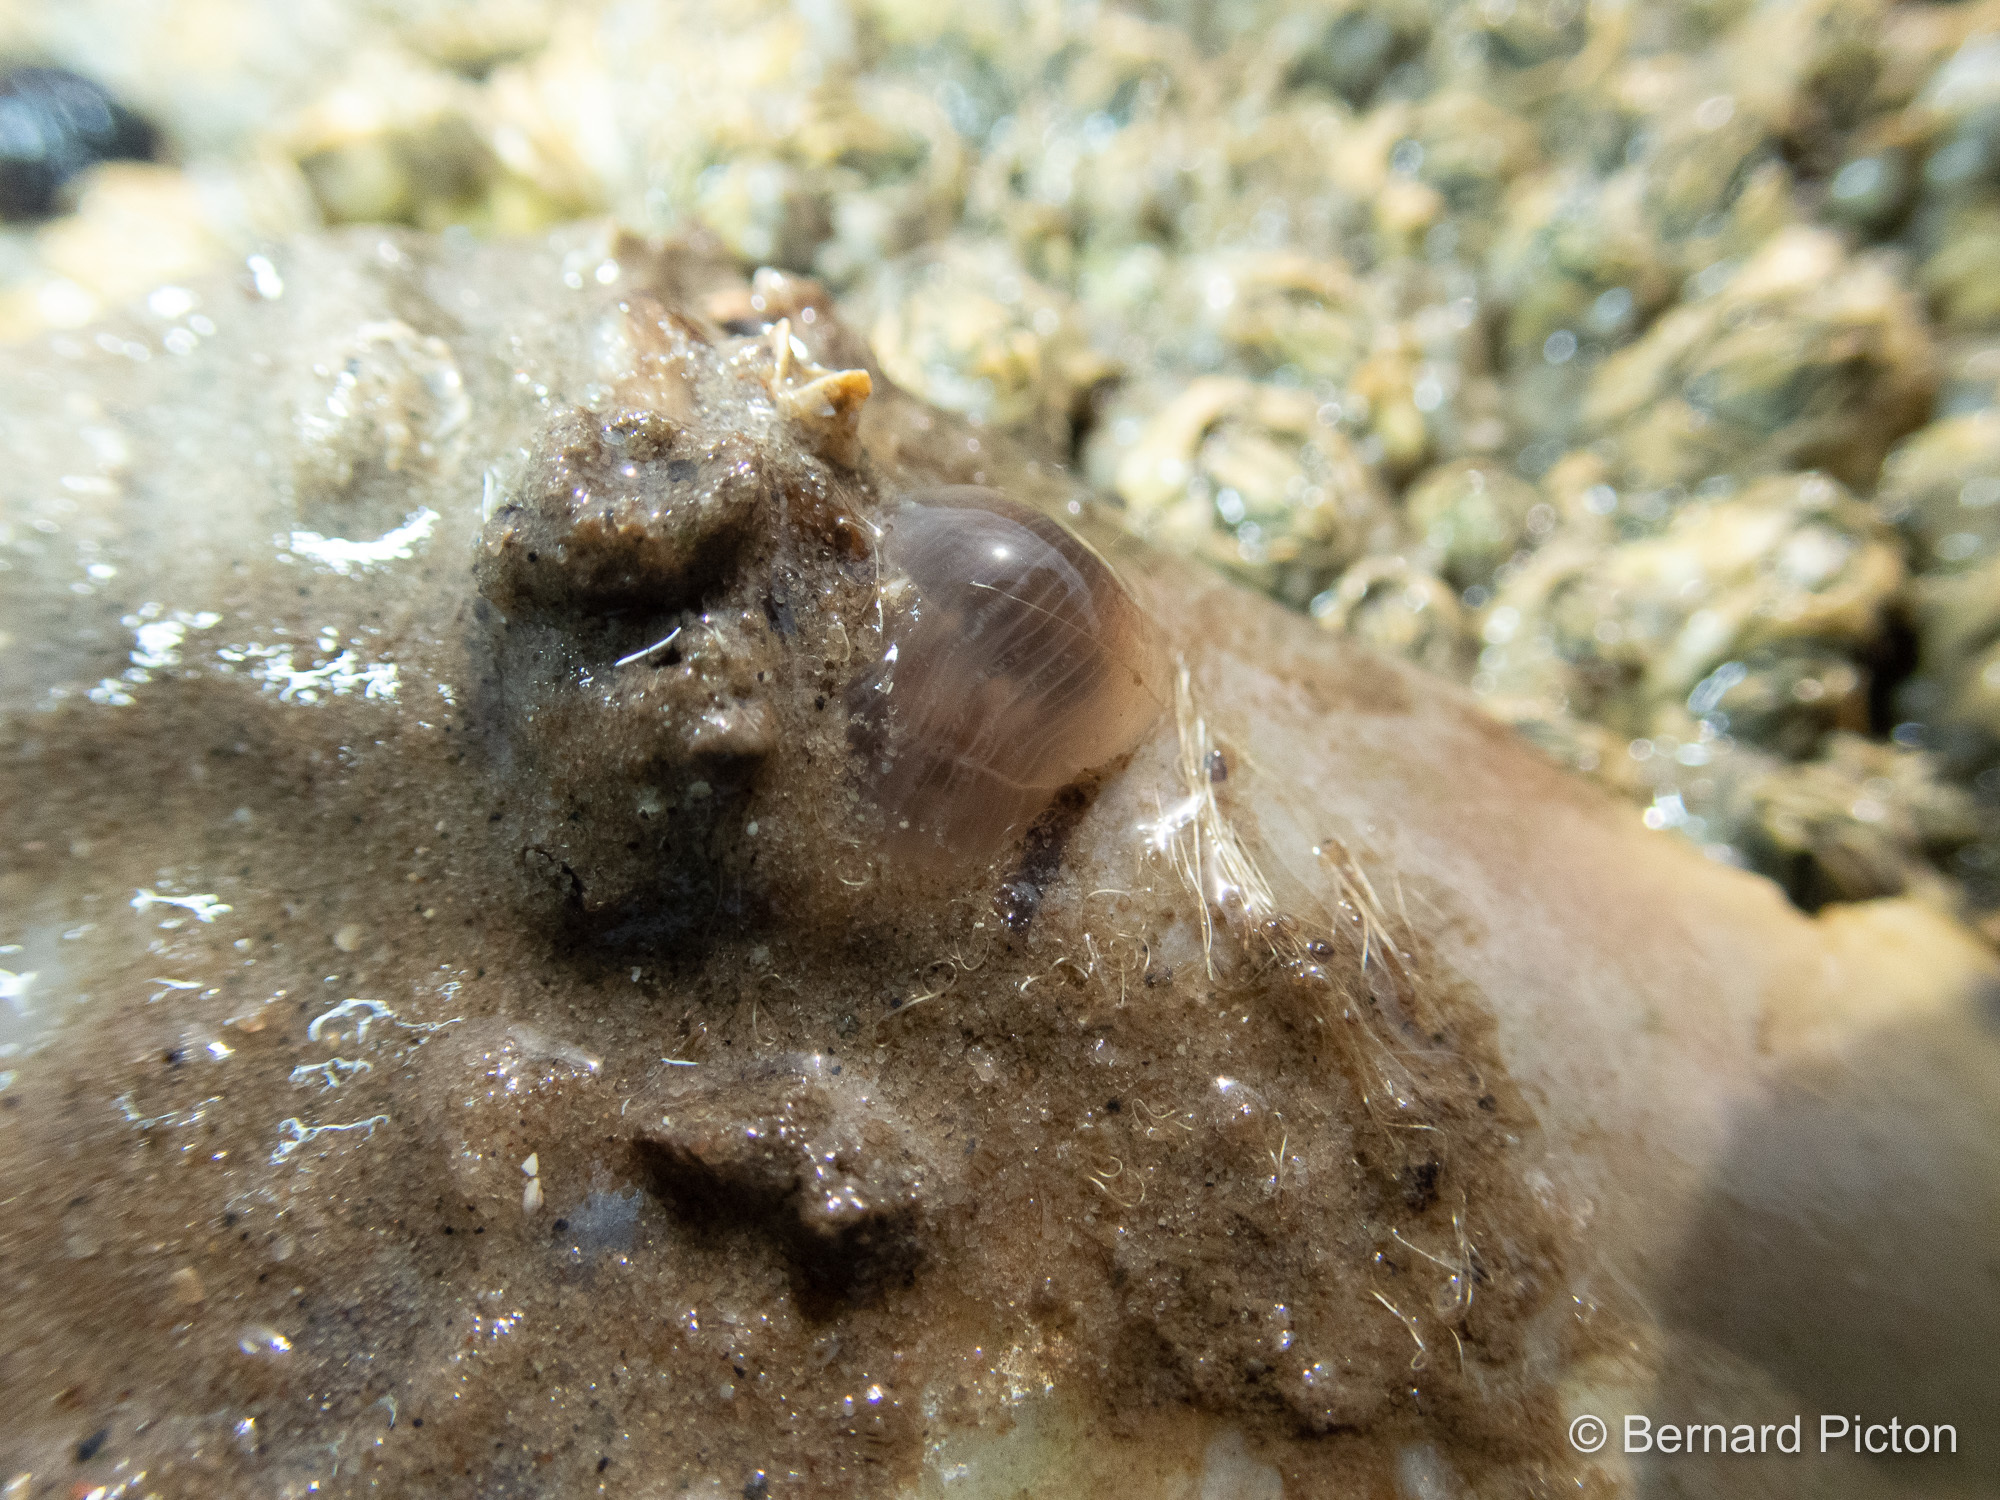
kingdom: Animalia
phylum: Cnidaria
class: Anthozoa
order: Actiniaria
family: Metridiidae
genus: Metridium
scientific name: Metridium senile
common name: Clonal plumose anemone
